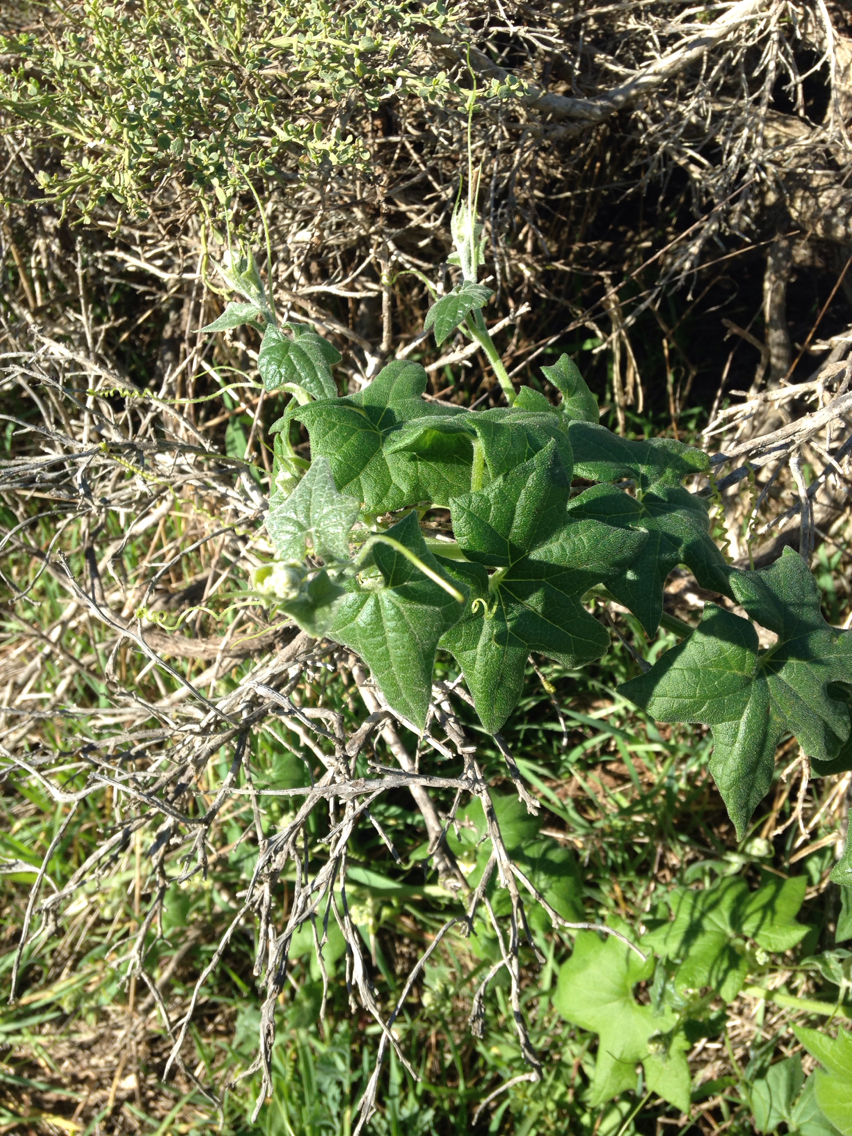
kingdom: Plantae
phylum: Tracheophyta
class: Magnoliopsida
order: Cucurbitales
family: Cucurbitaceae
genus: Marah
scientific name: Marah fabacea
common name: California manroot
